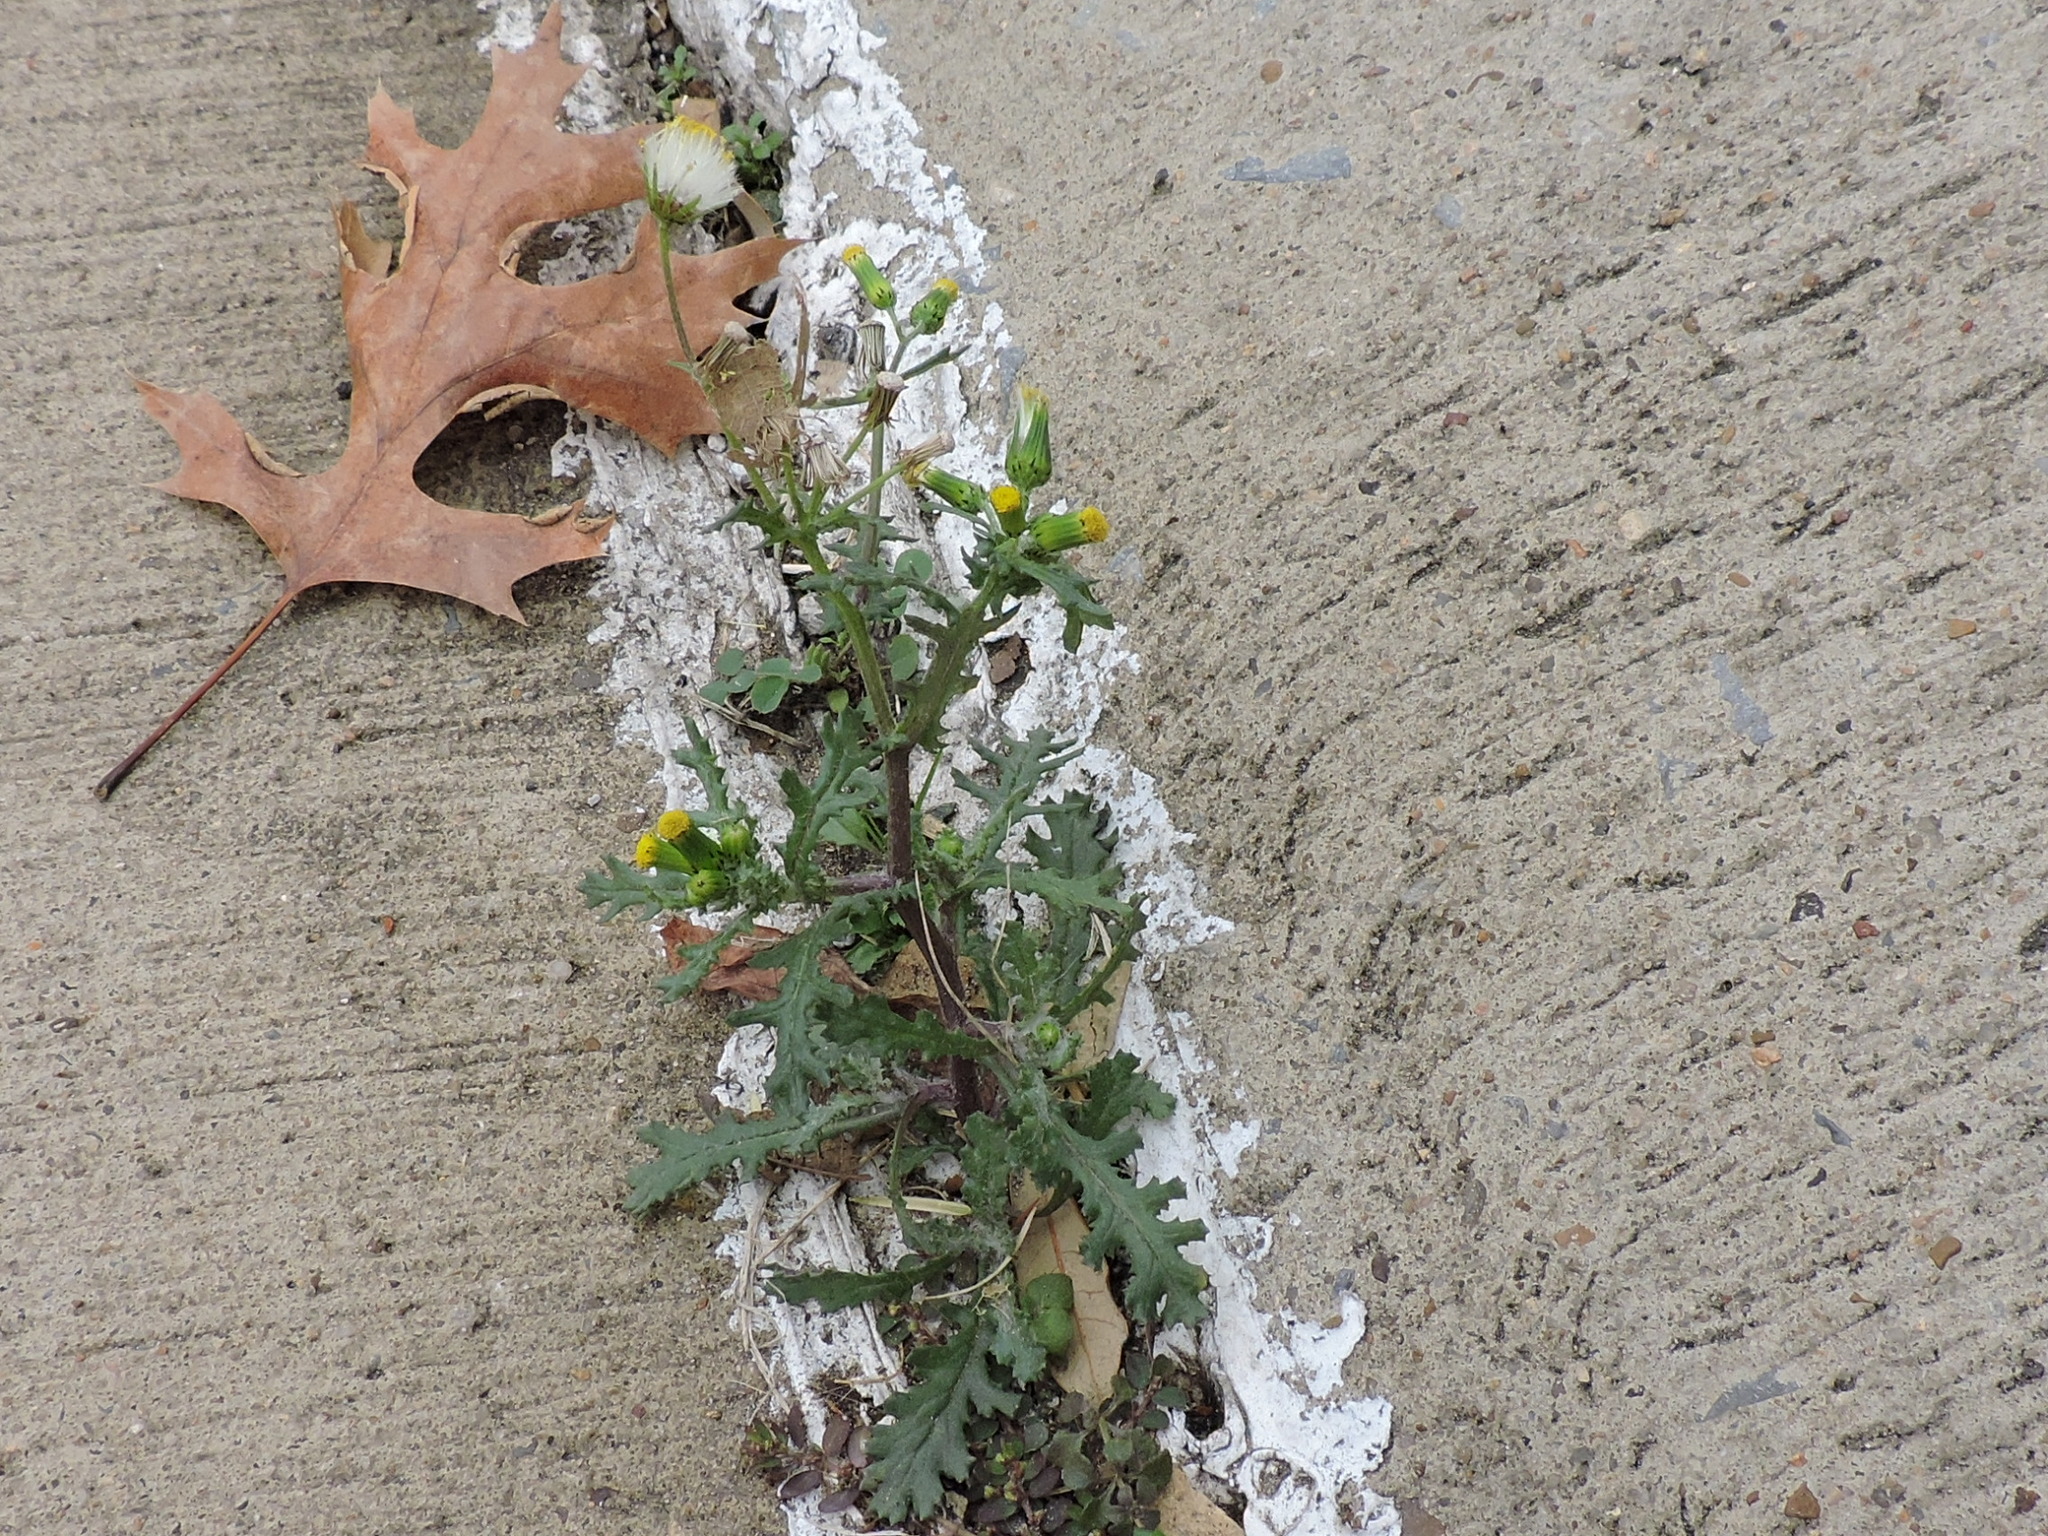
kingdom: Plantae
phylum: Tracheophyta
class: Magnoliopsida
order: Asterales
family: Asteraceae
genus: Senecio
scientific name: Senecio vulgaris
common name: Old-man-in-the-spring
